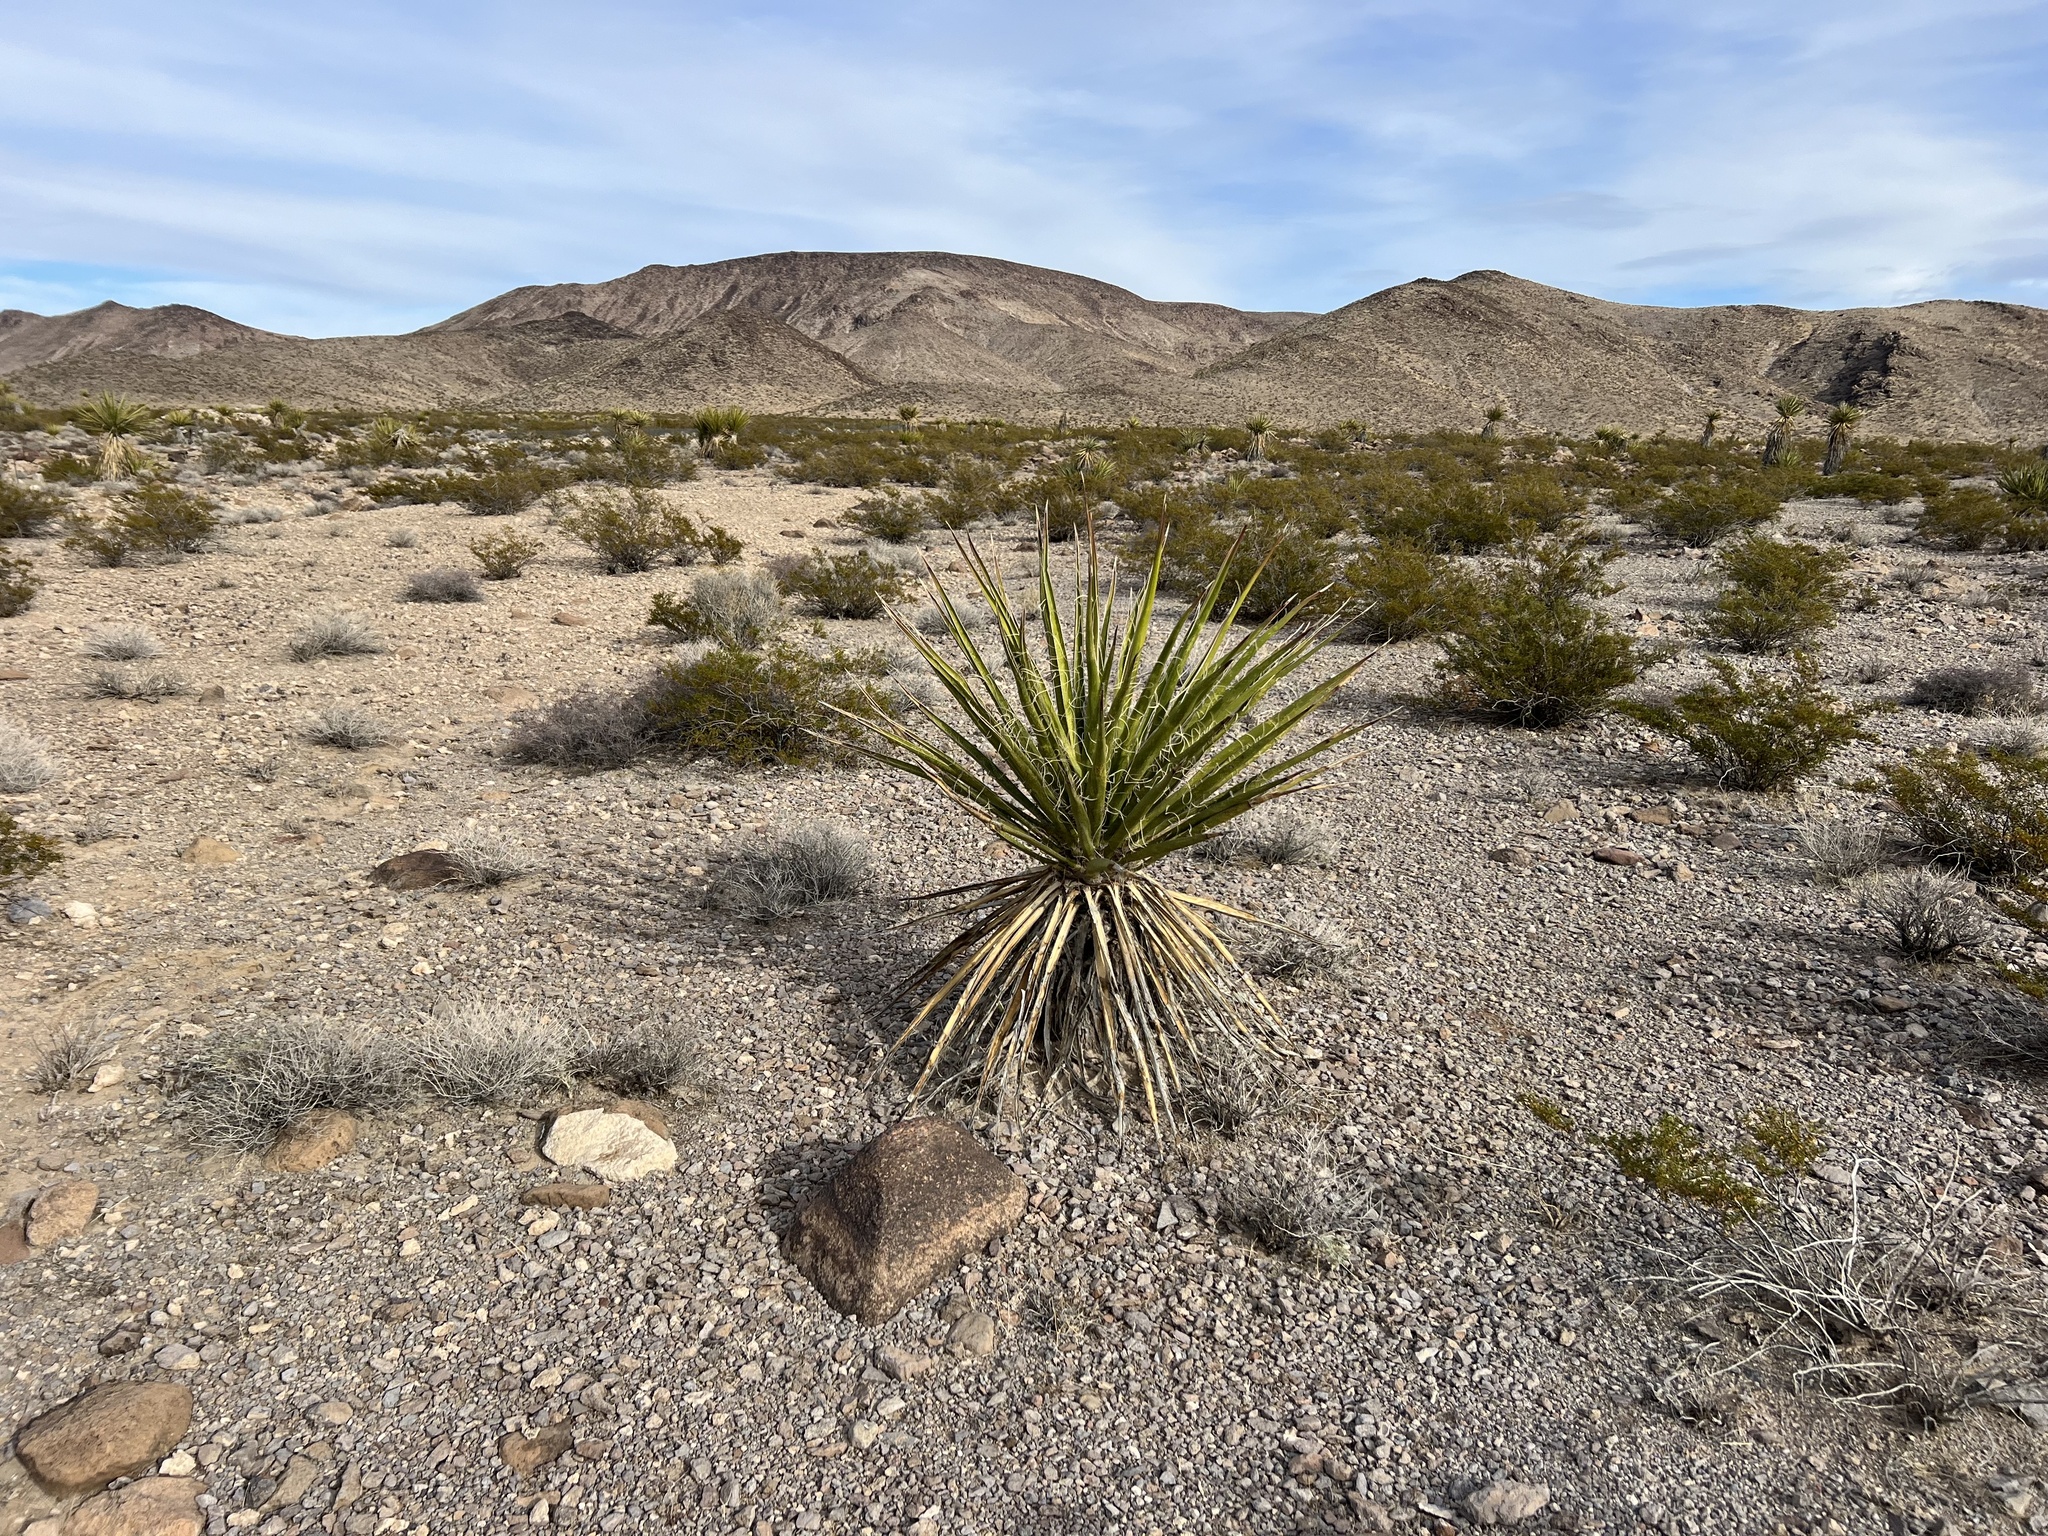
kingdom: Plantae
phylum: Tracheophyta
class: Liliopsida
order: Asparagales
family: Asparagaceae
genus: Yucca
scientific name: Yucca schidigera
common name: Mojave yucca
